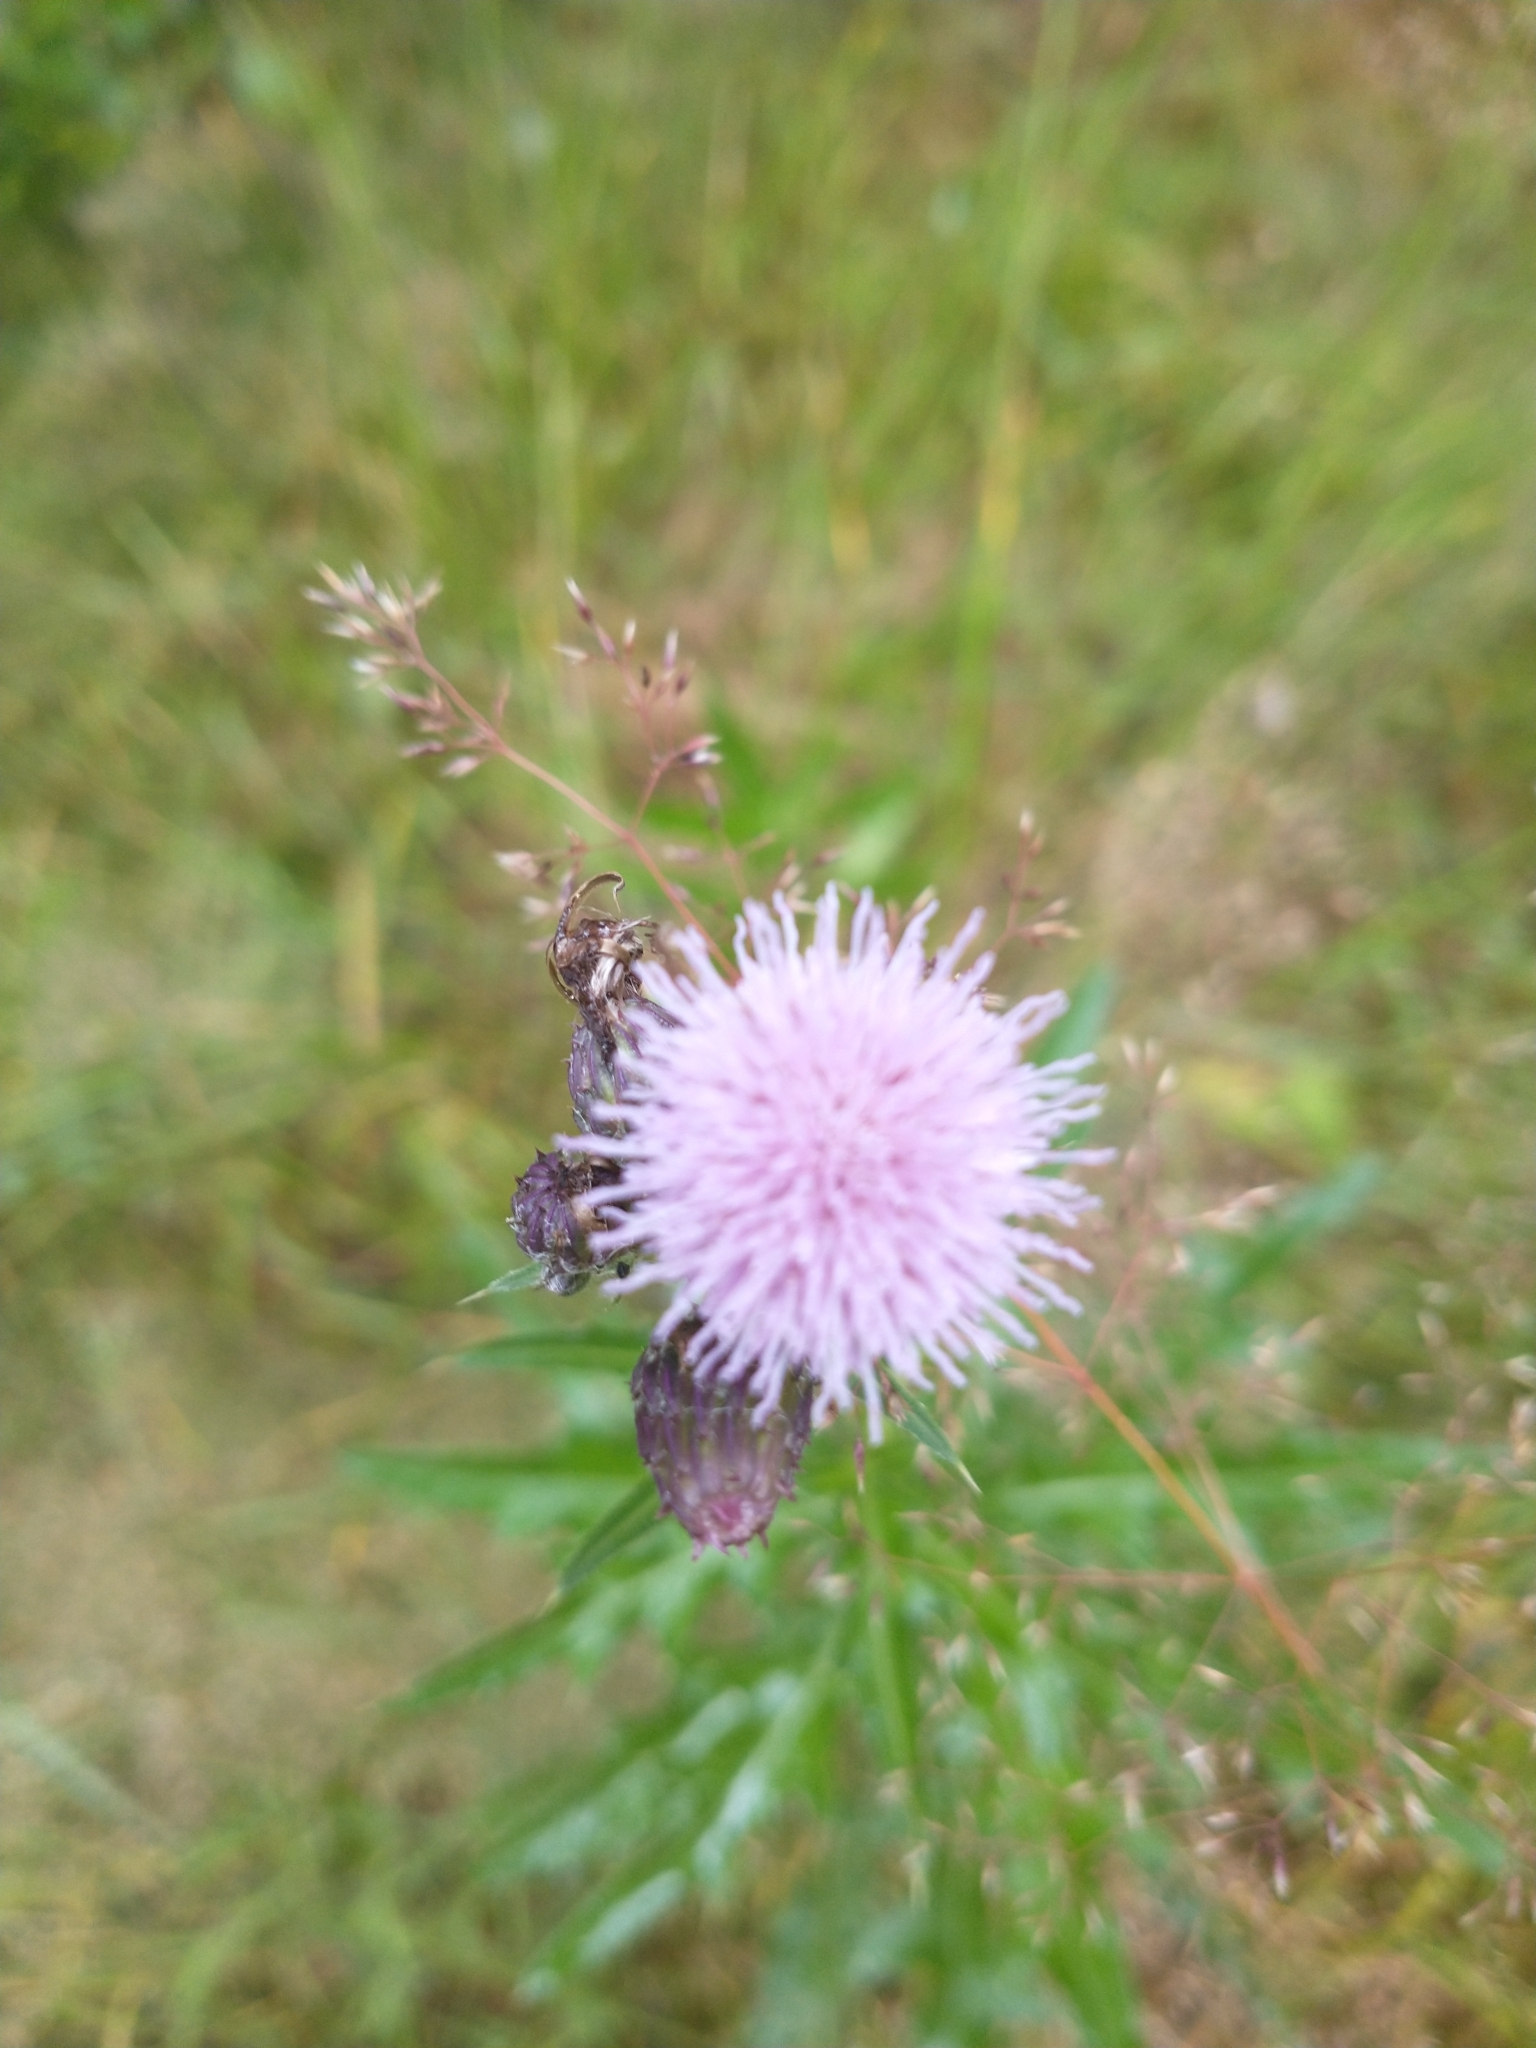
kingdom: Plantae
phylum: Tracheophyta
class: Magnoliopsida
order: Asterales
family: Asteraceae
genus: Cirsium
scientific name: Cirsium arvense
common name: Creeping thistle
